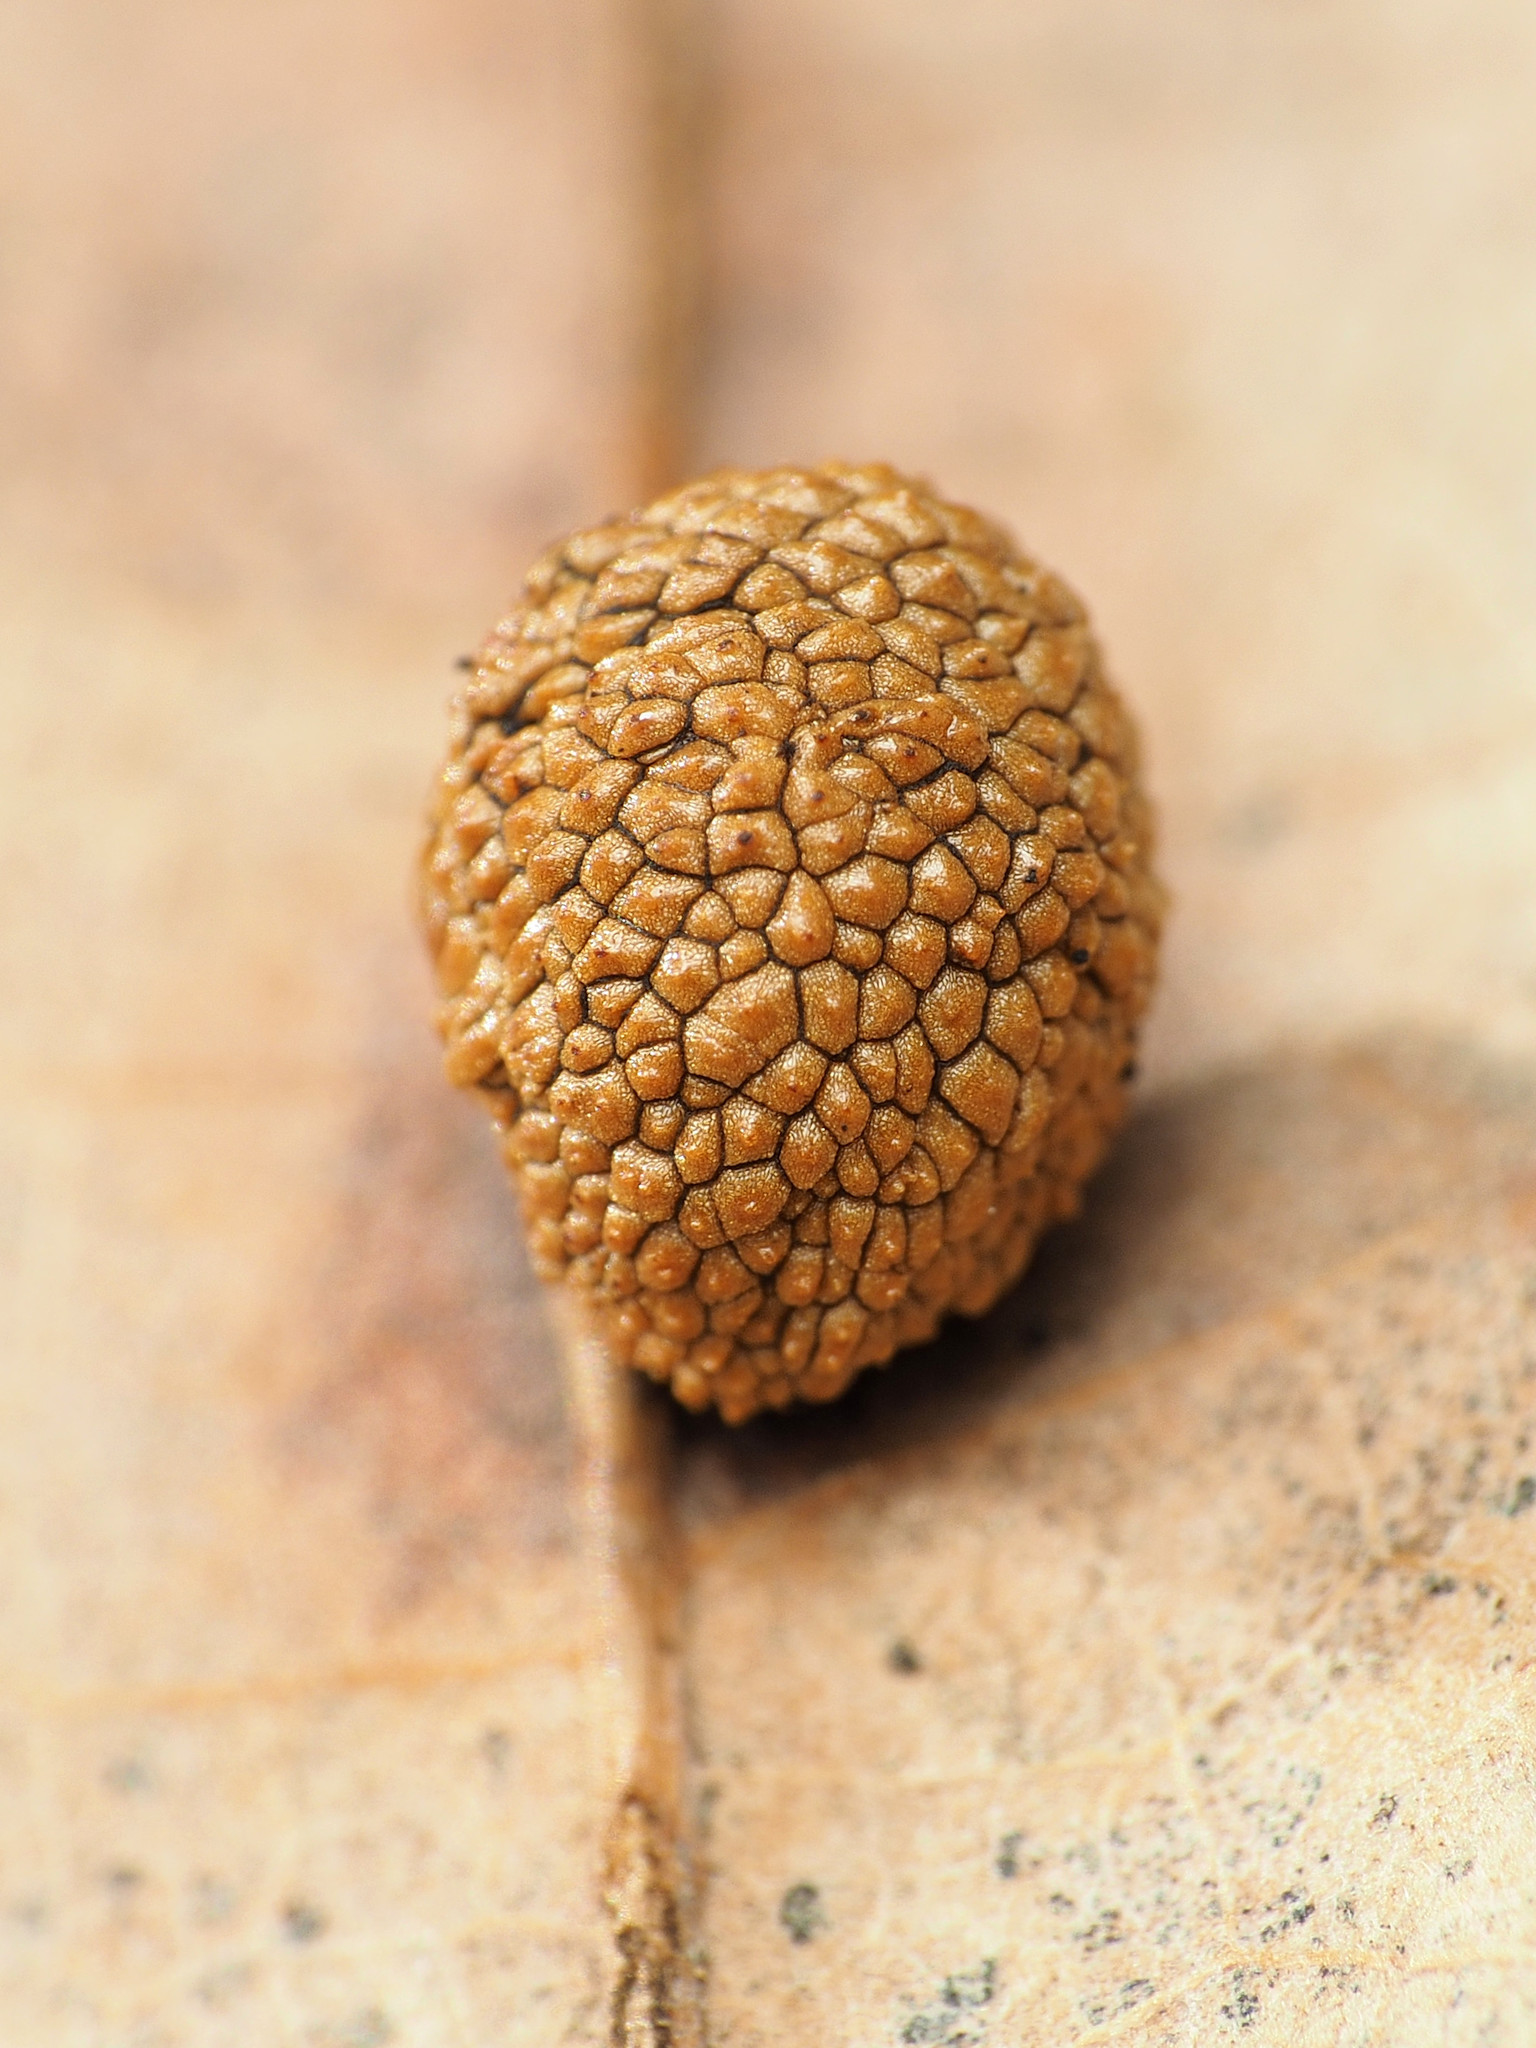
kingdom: Animalia
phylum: Arthropoda
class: Insecta
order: Hymenoptera
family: Cynipidae
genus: Acraspis
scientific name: Acraspis quercushirta
